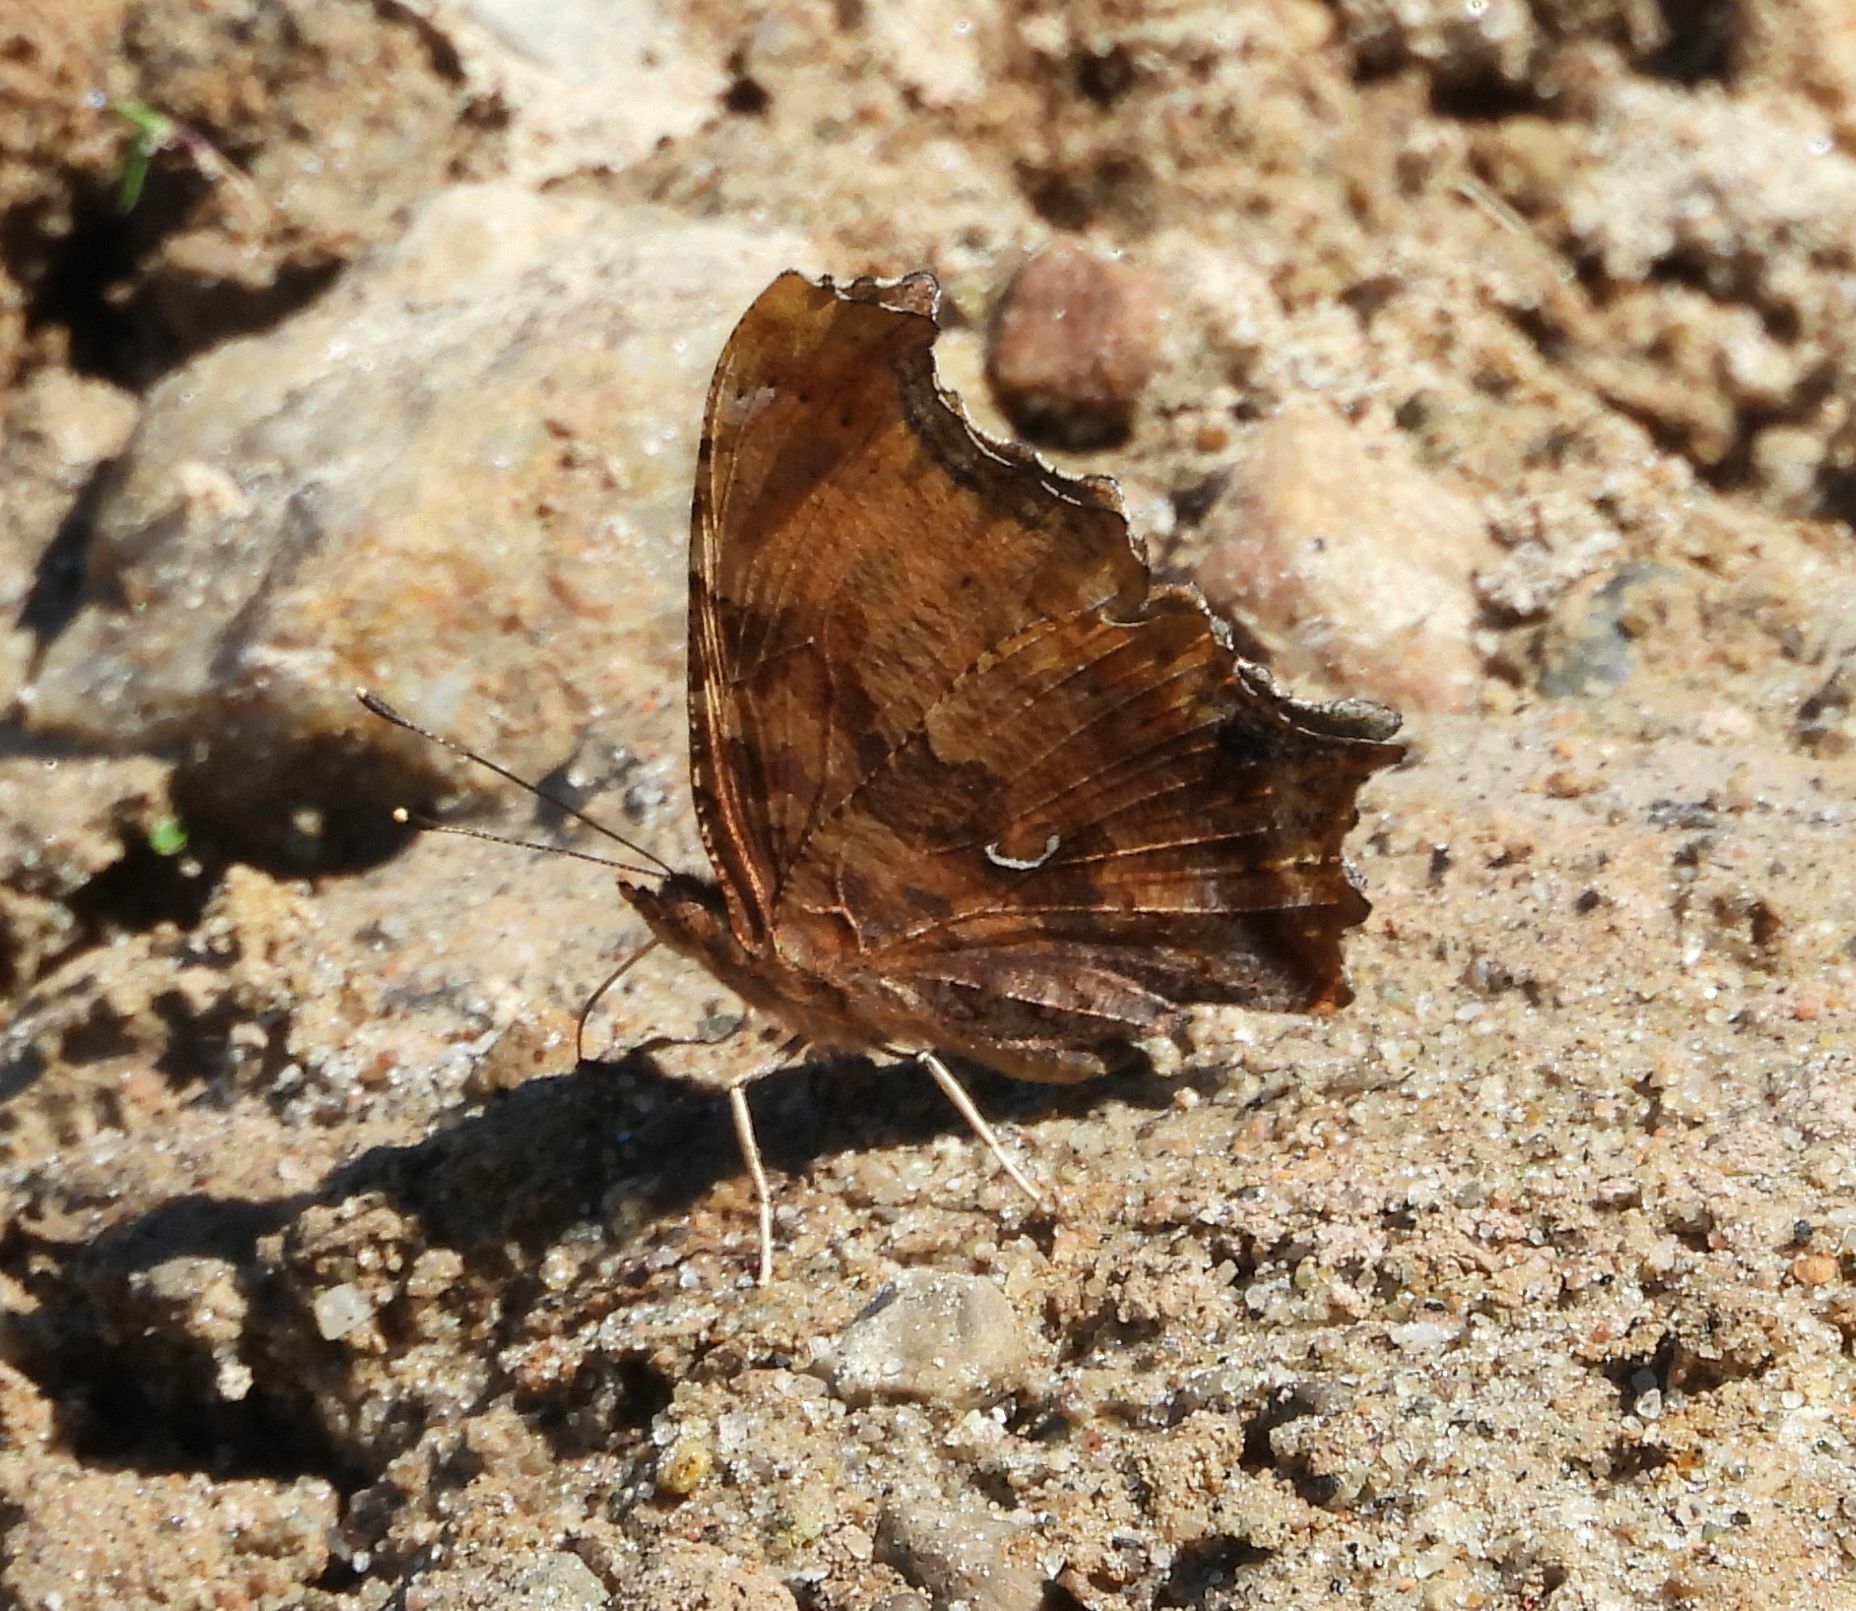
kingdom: Animalia
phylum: Arthropoda
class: Insecta
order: Lepidoptera
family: Nymphalidae
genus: Polygonia
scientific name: Polygonia comma
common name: Eastern comma
